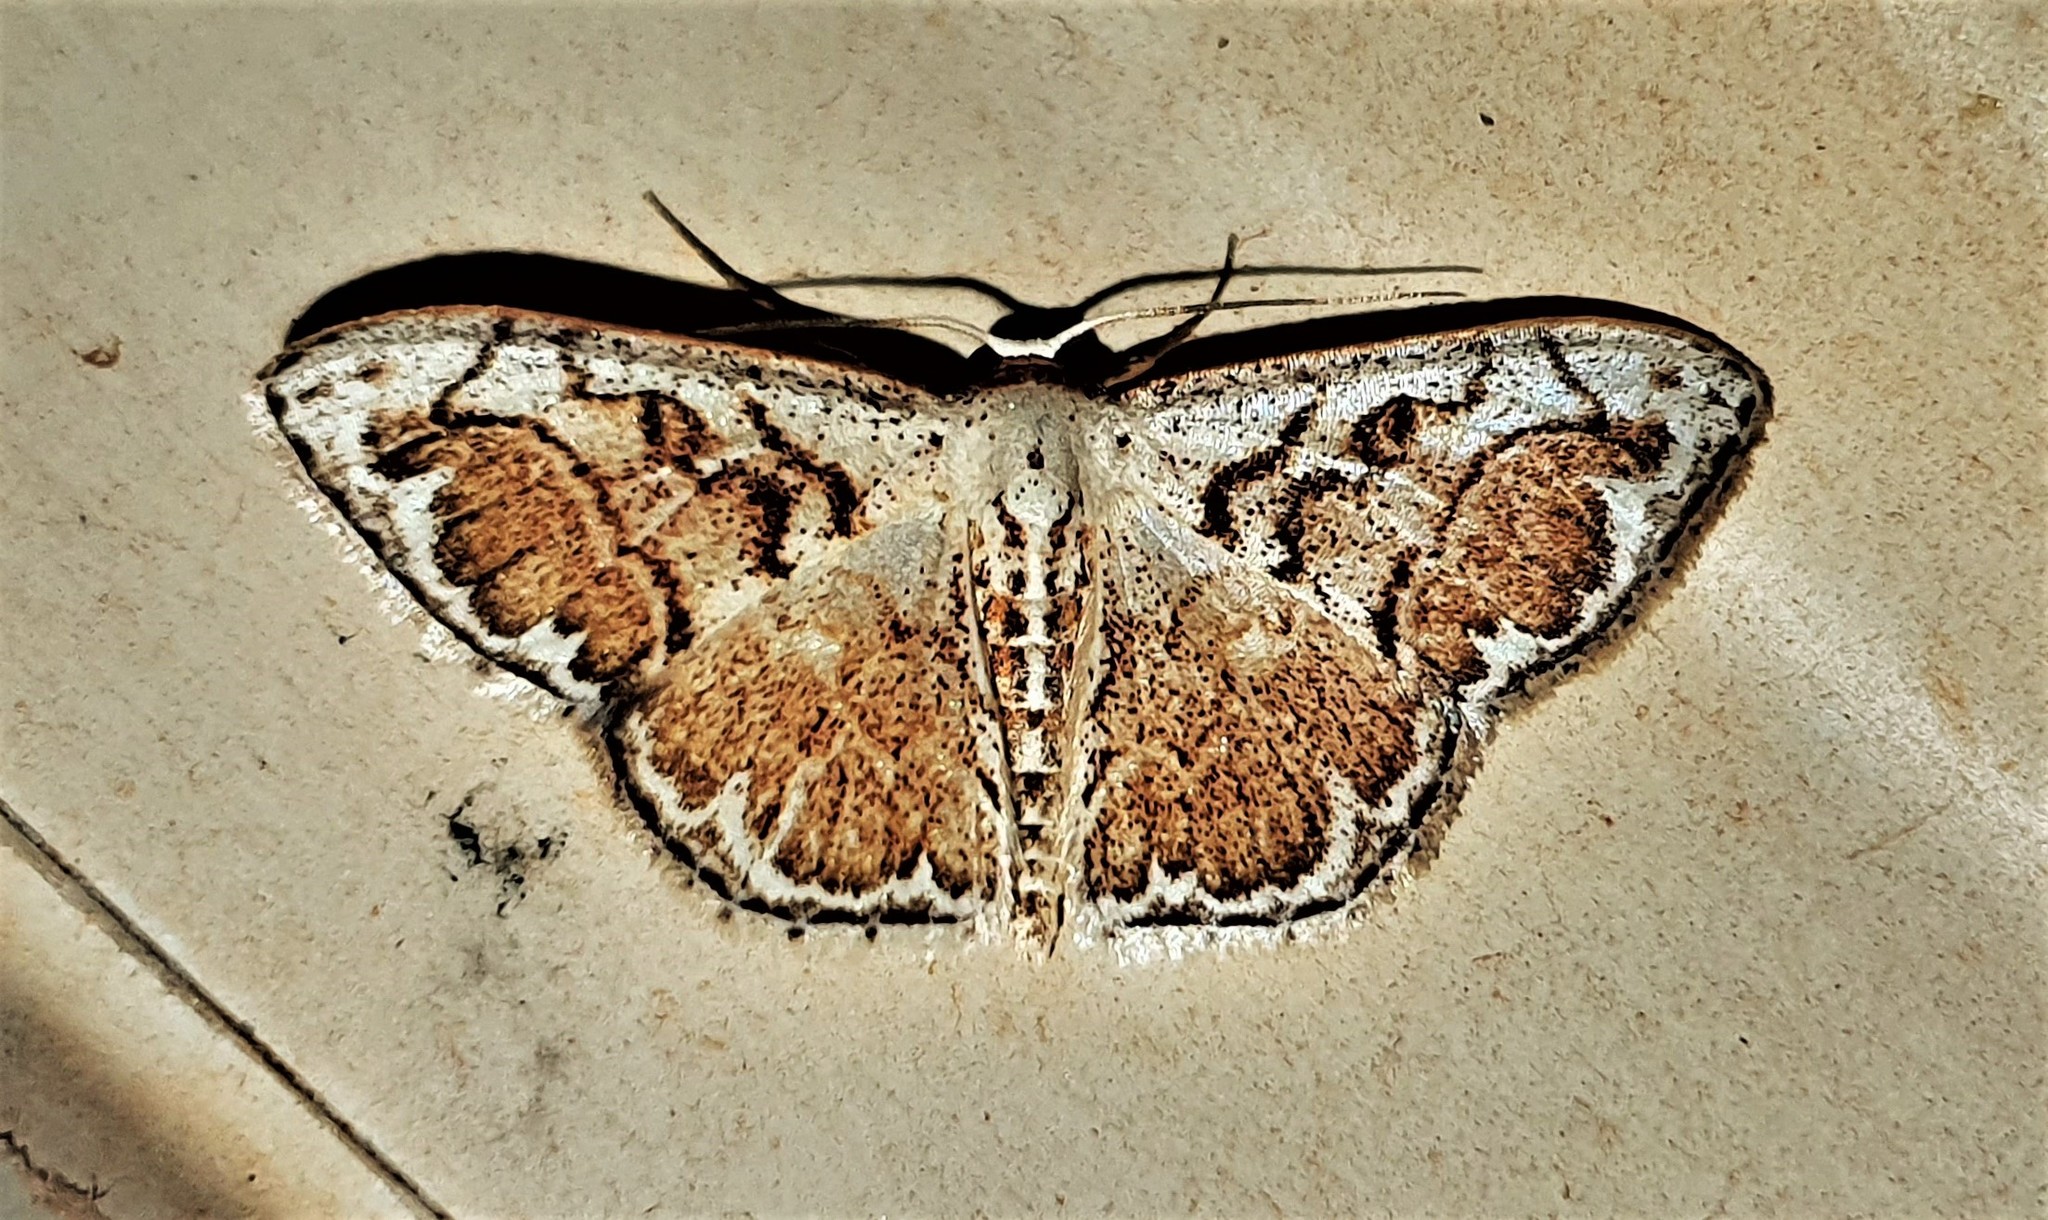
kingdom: Animalia
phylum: Arthropoda
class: Insecta
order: Lepidoptera
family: Geometridae
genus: Idaea
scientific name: Idaea fervens
